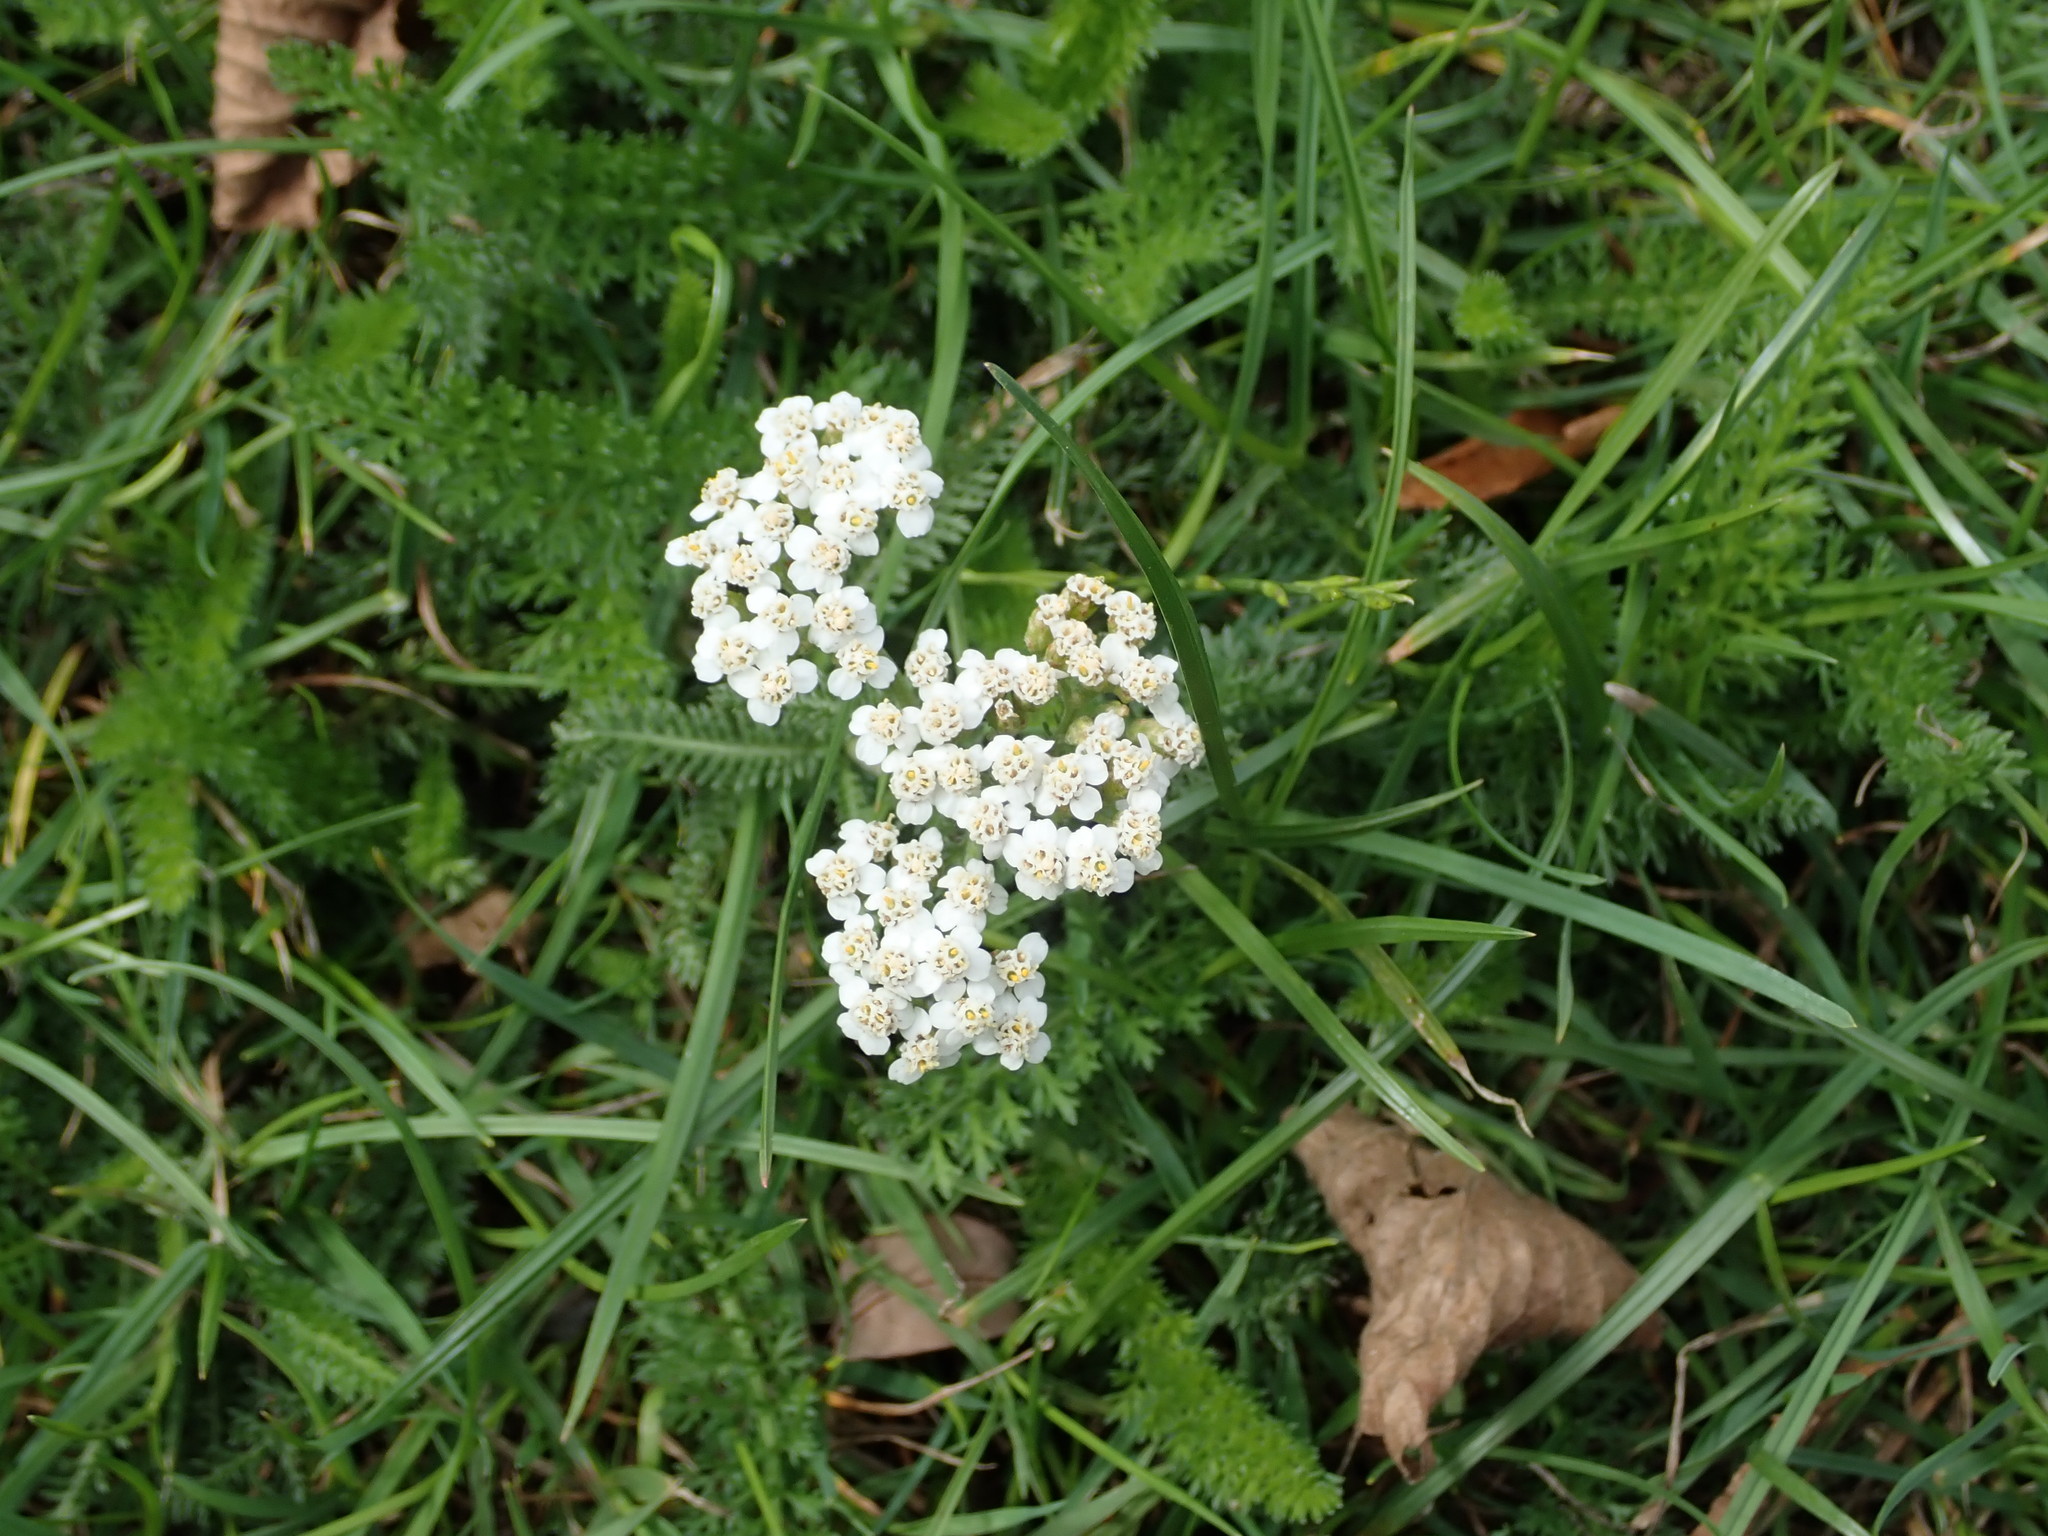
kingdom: Plantae
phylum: Tracheophyta
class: Magnoliopsida
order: Asterales
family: Asteraceae
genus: Achillea
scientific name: Achillea millefolium
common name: Yarrow
